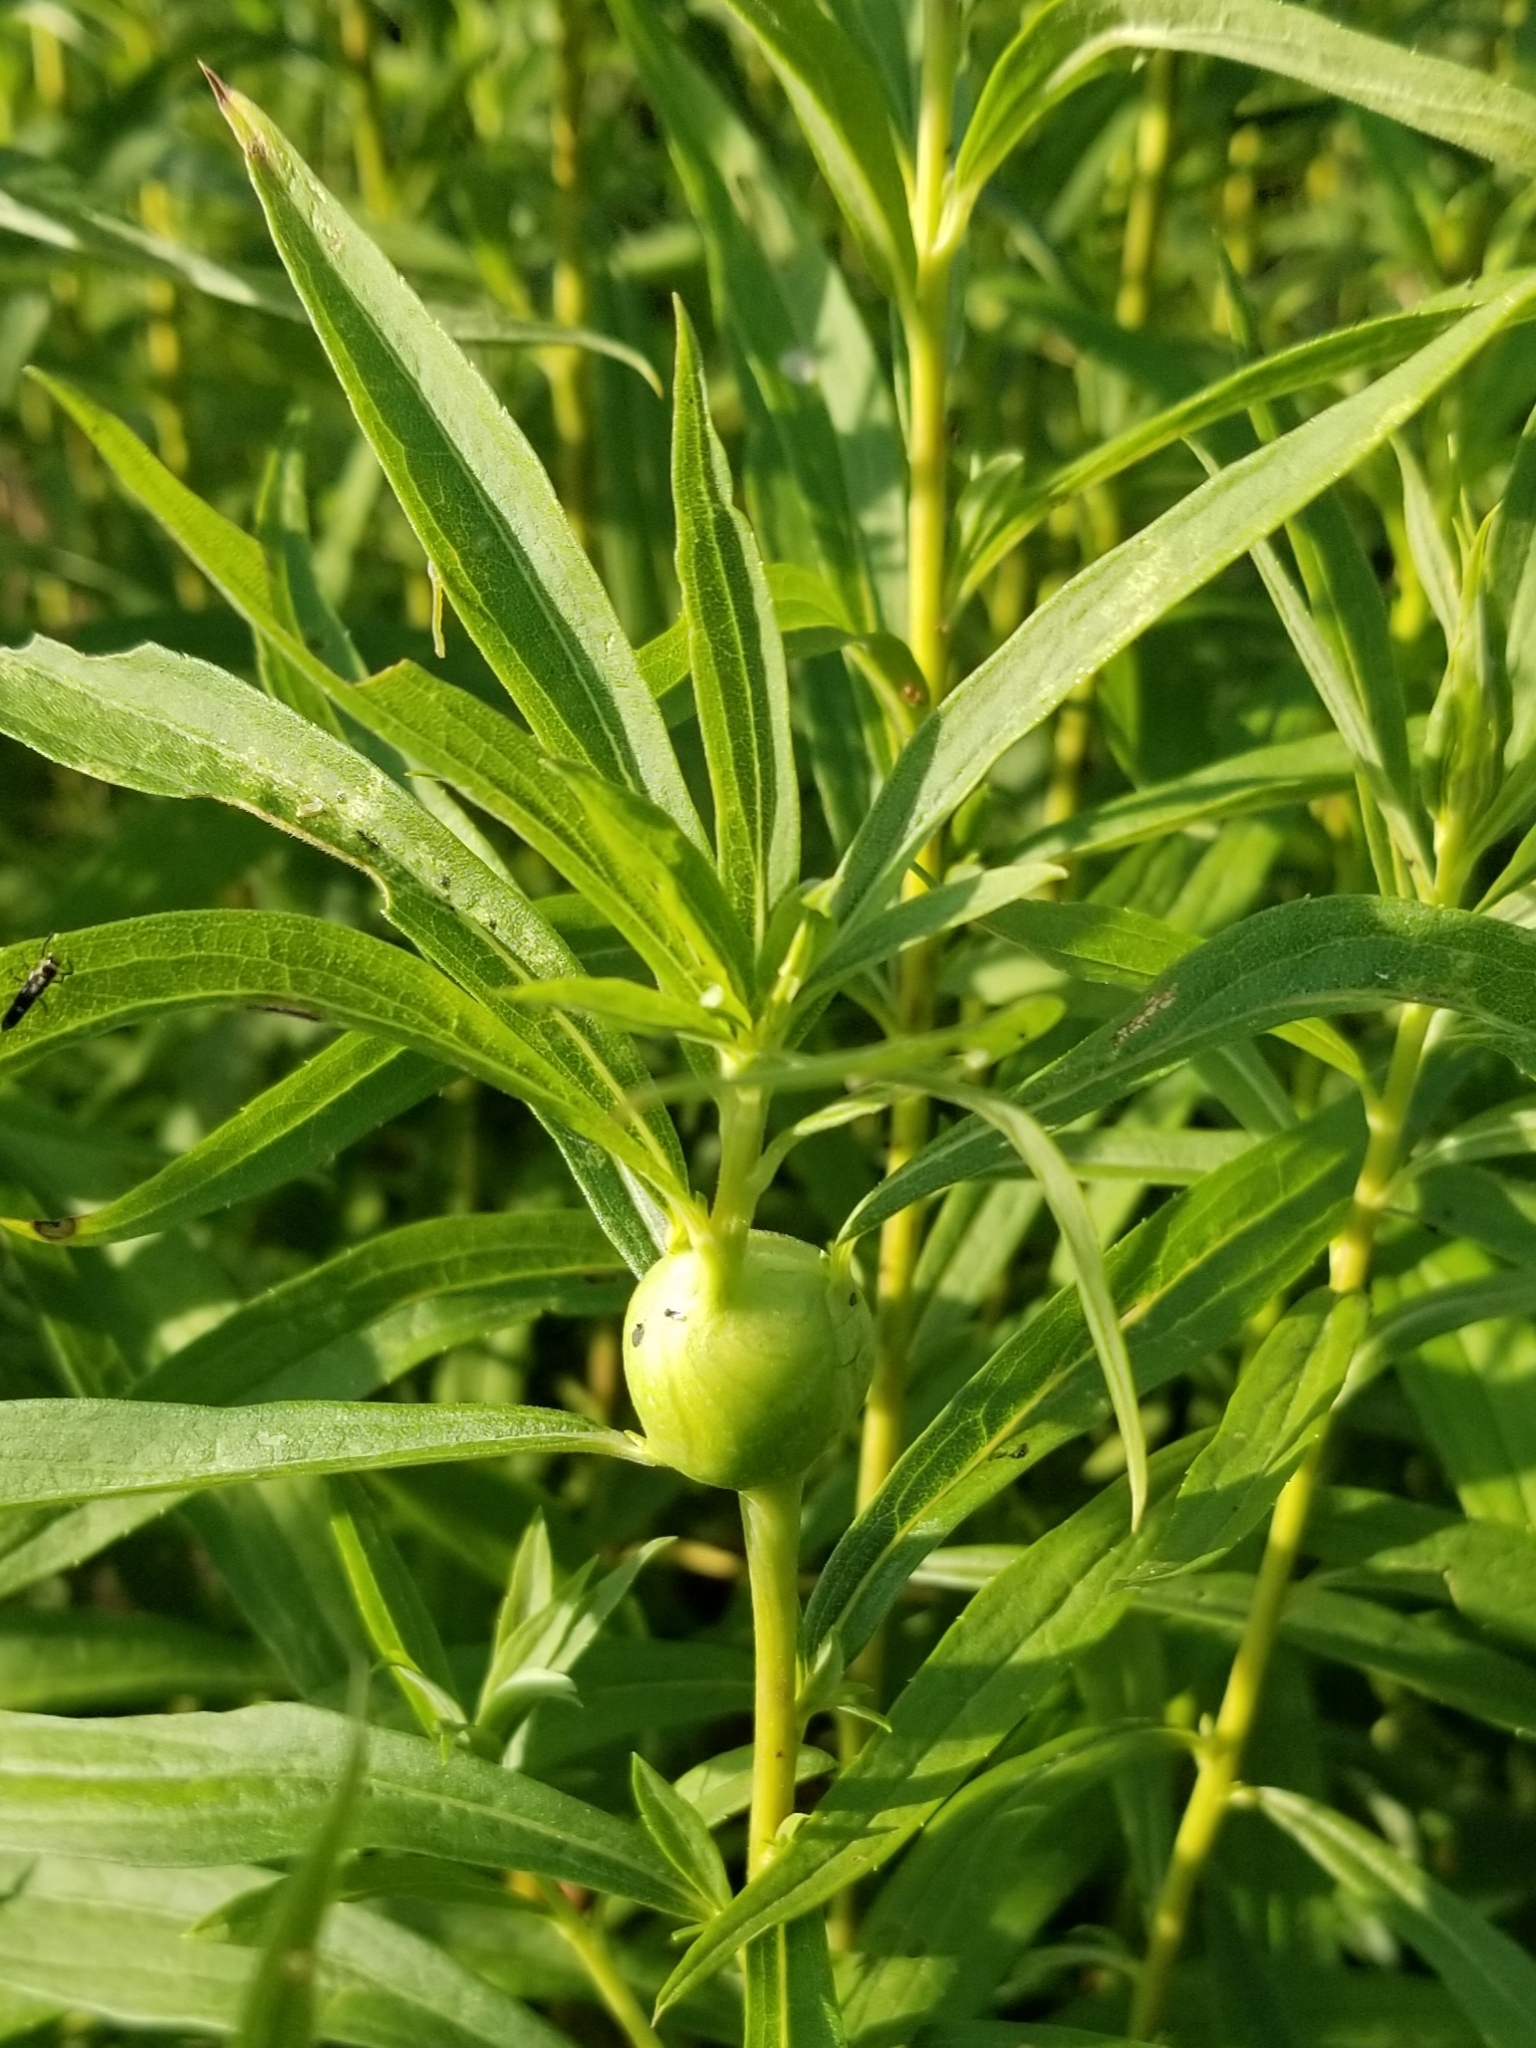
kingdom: Animalia
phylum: Arthropoda
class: Insecta
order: Diptera
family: Tephritidae
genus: Eurosta
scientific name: Eurosta solidaginis
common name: Goldenrod gall fly
